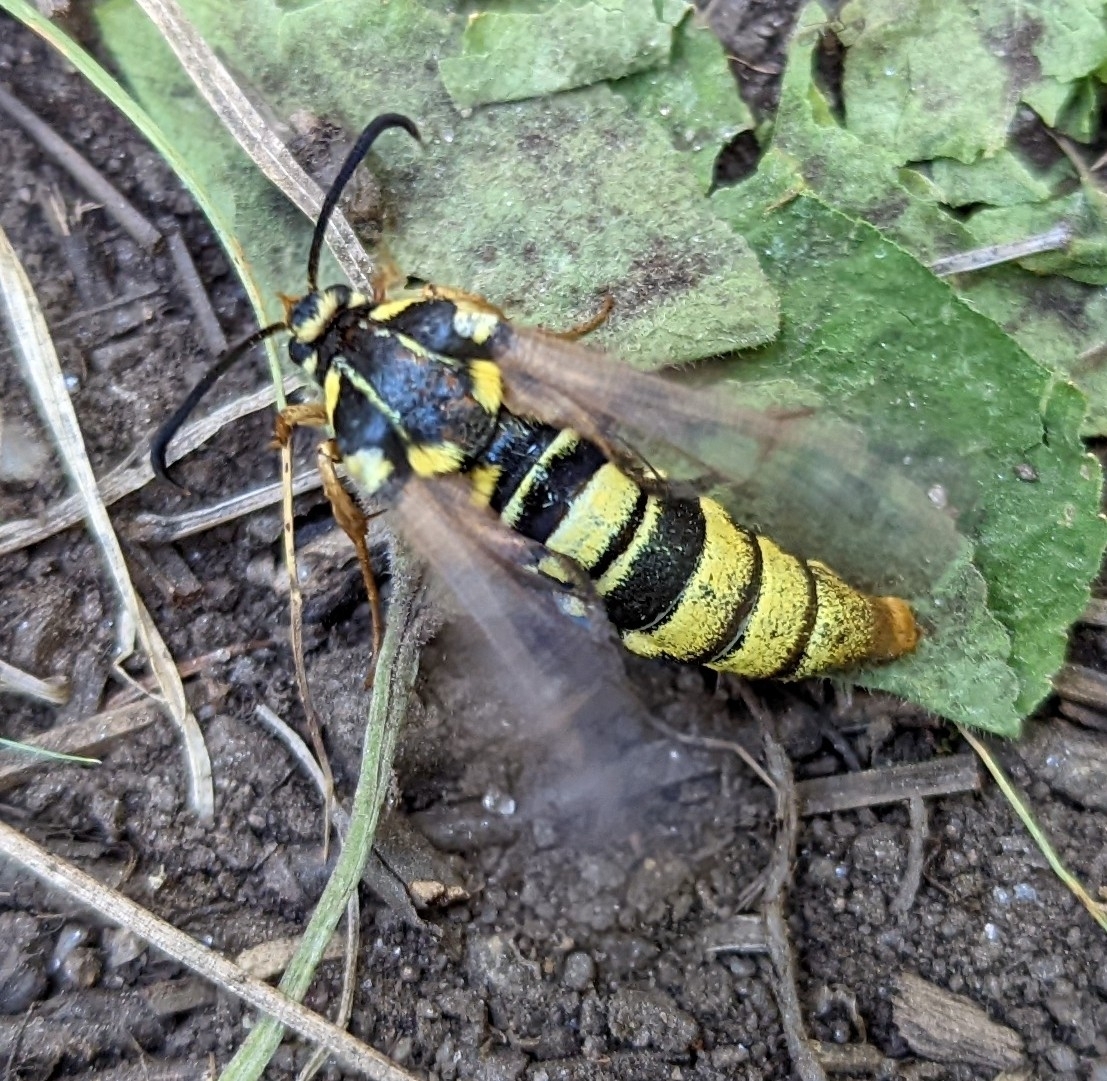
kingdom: Animalia
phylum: Arthropoda
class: Insecta
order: Lepidoptera
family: Sesiidae
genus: Sesia
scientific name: Sesia tibiale
